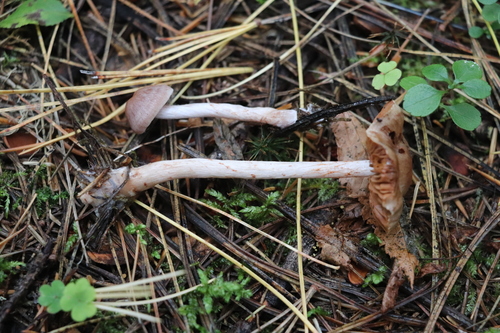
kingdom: Fungi
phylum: Basidiomycota
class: Agaricomycetes
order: Agaricales
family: Cortinariaceae
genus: Cortinarius
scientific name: Cortinarius
